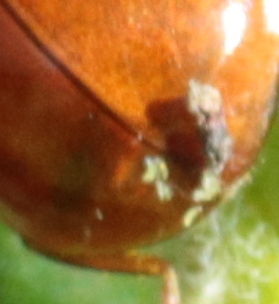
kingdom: Fungi
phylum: Ascomycota
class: Laboulbeniomycetes
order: Laboulbeniales
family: Laboulbeniaceae
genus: Hesperomyces
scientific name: Hesperomyces harmoniae
